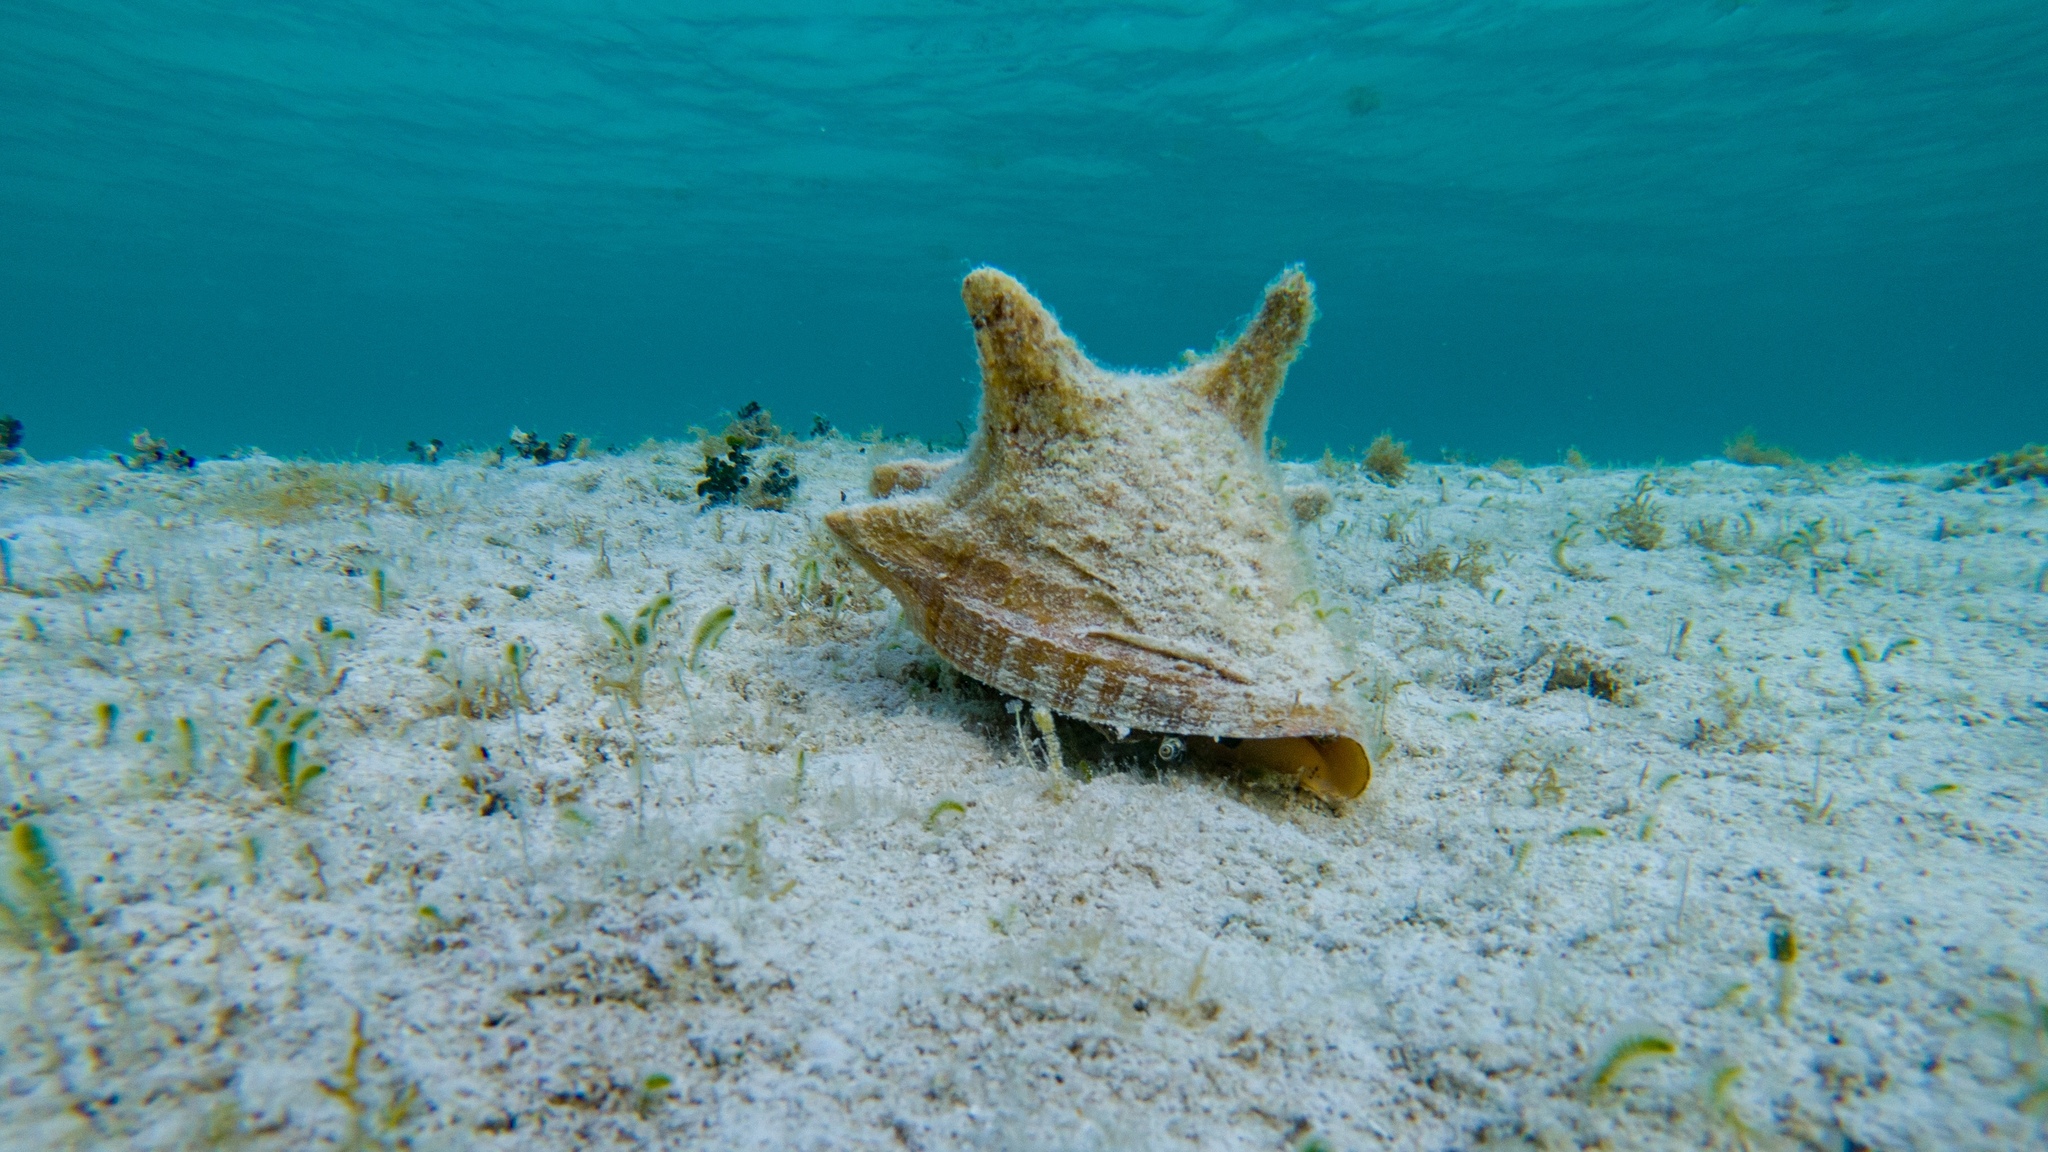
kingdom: Animalia
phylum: Mollusca
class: Gastropoda
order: Littorinimorpha
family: Strombidae
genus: Aliger
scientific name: Aliger gigas
